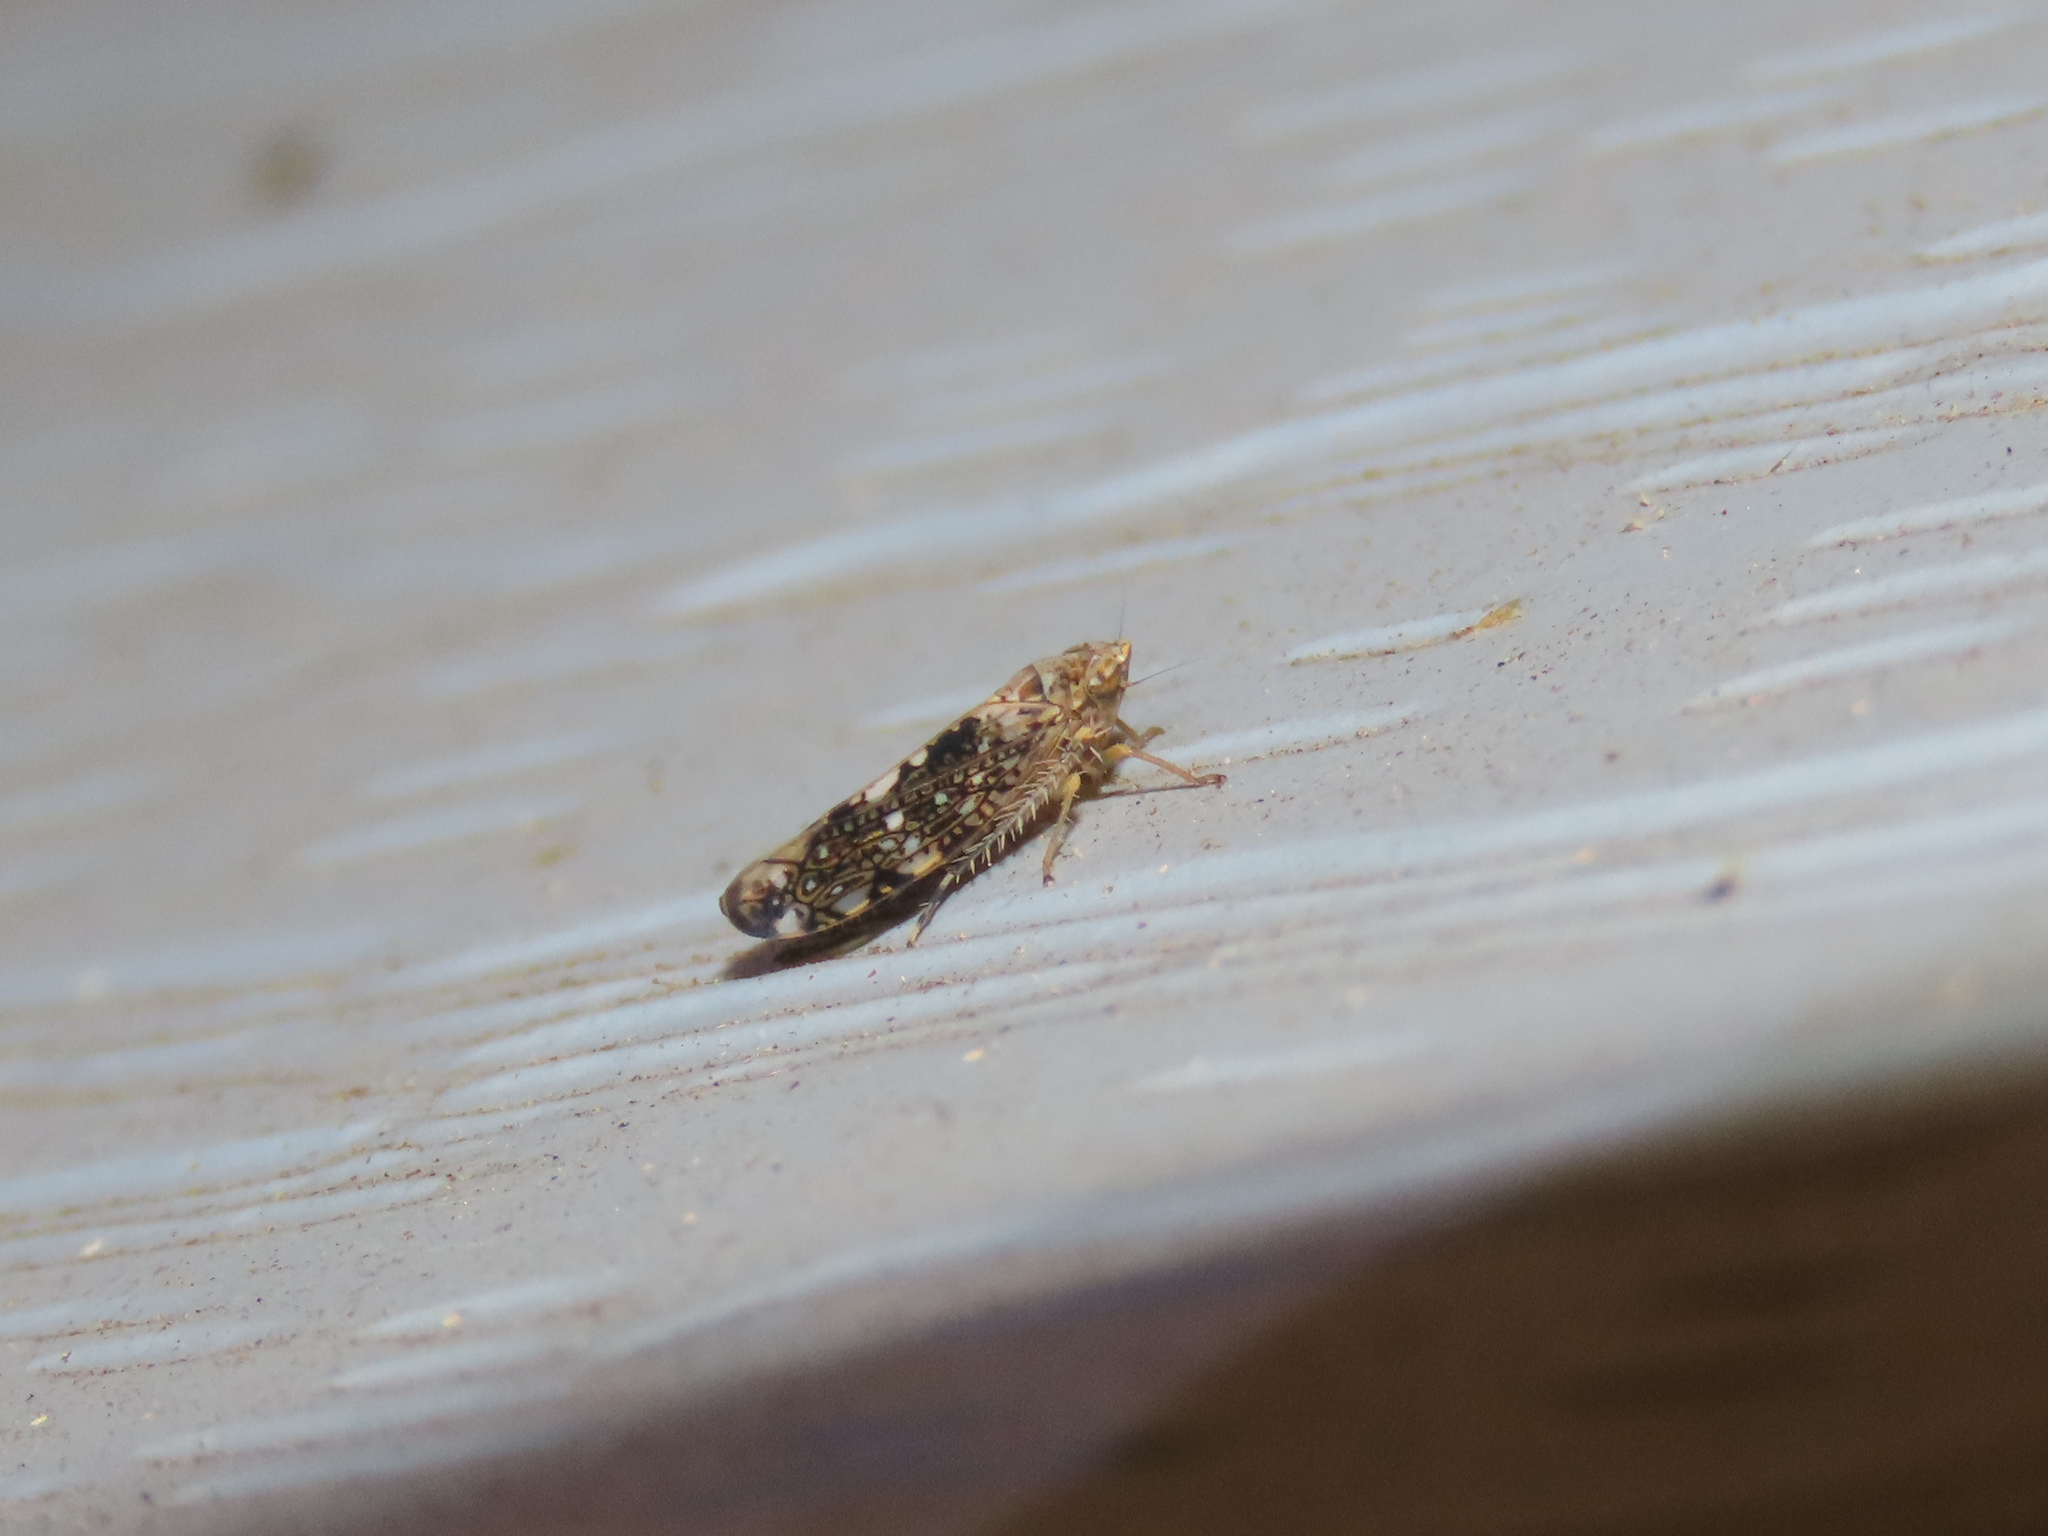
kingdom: Animalia
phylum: Arthropoda
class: Insecta
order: Hemiptera
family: Cicadellidae
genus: Prescottia
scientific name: Prescottia lobata
